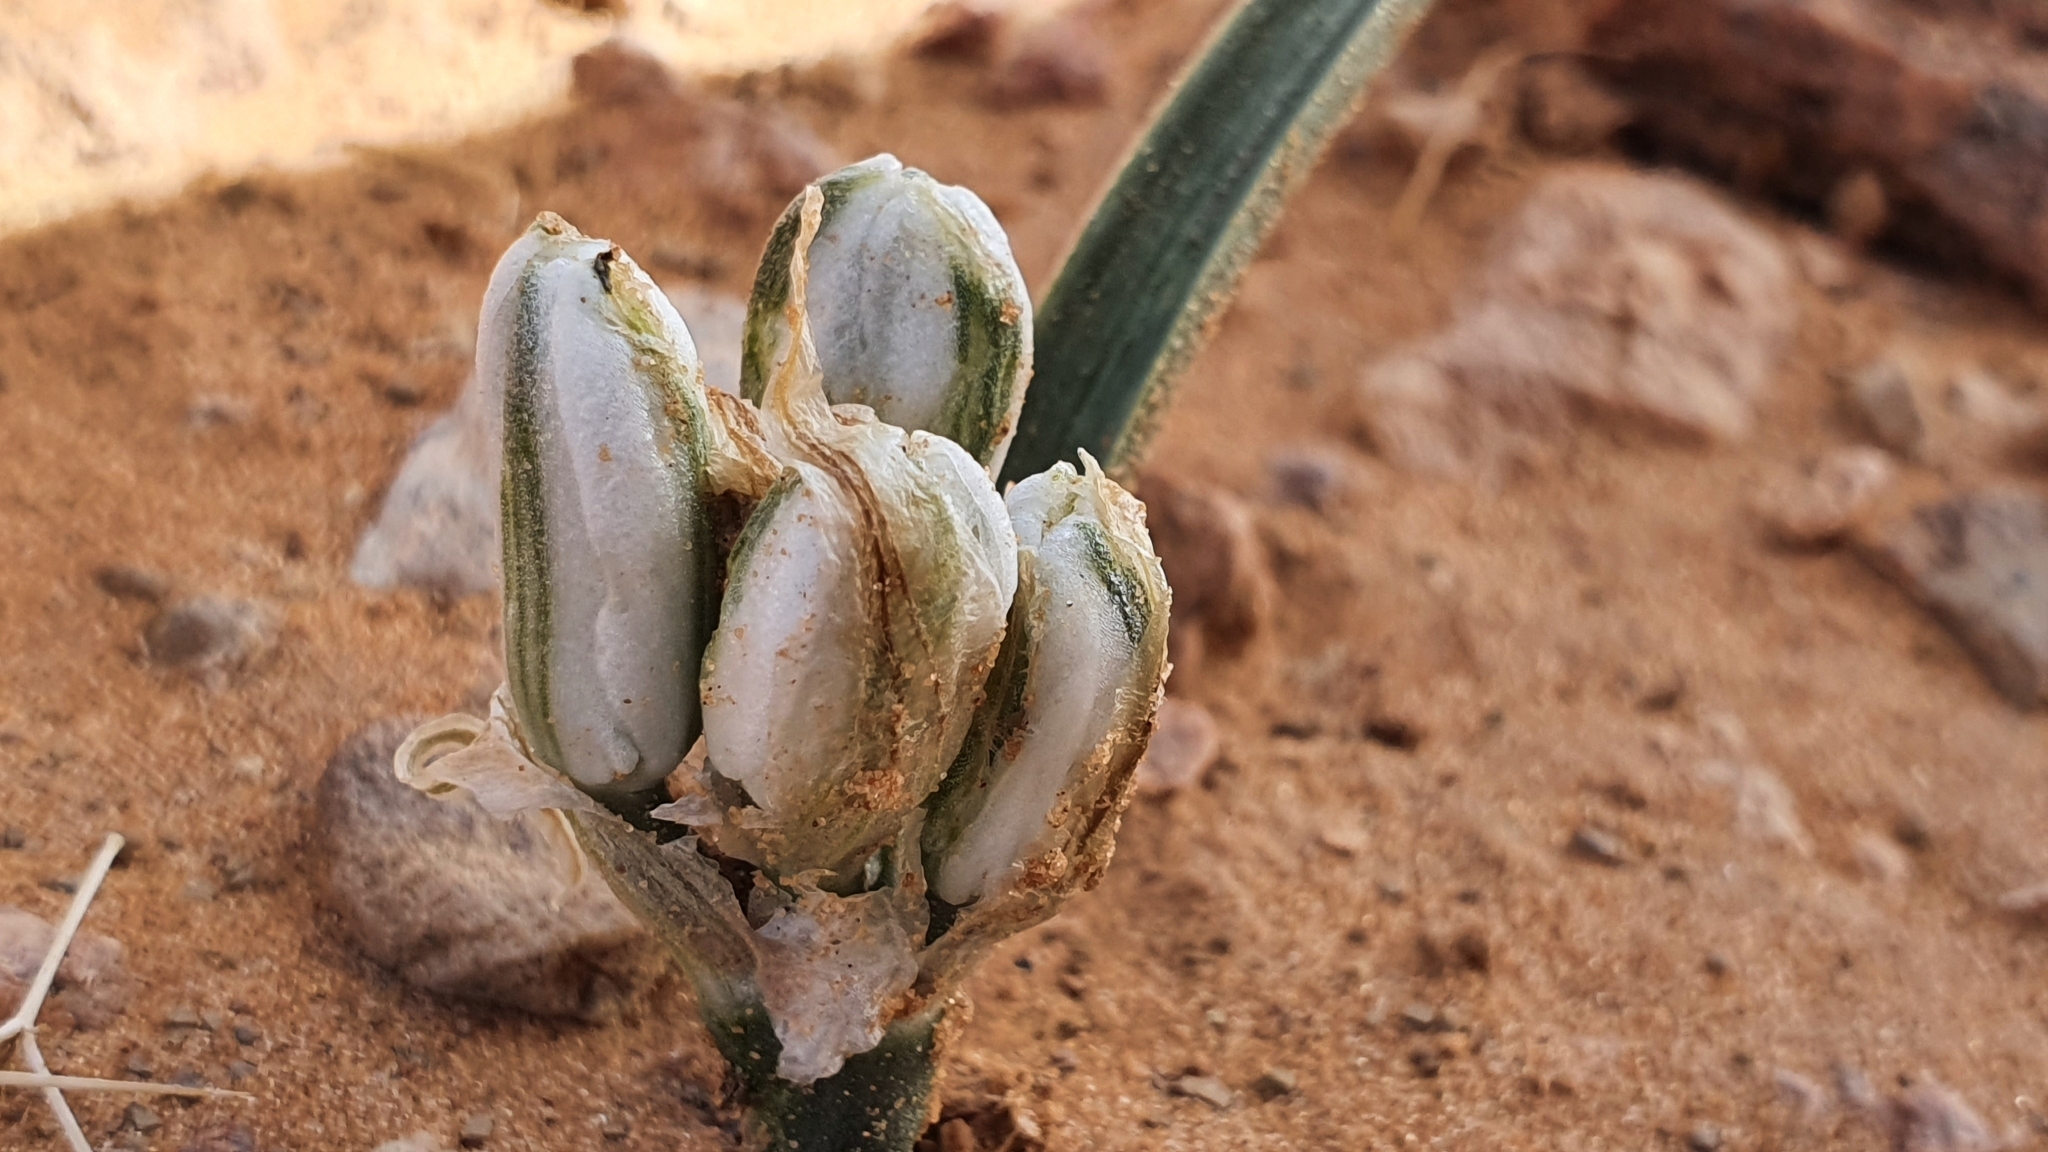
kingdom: Plantae
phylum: Tracheophyta
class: Liliopsida
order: Asparagales
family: Asparagaceae
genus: Albuca
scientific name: Albuca amoena
